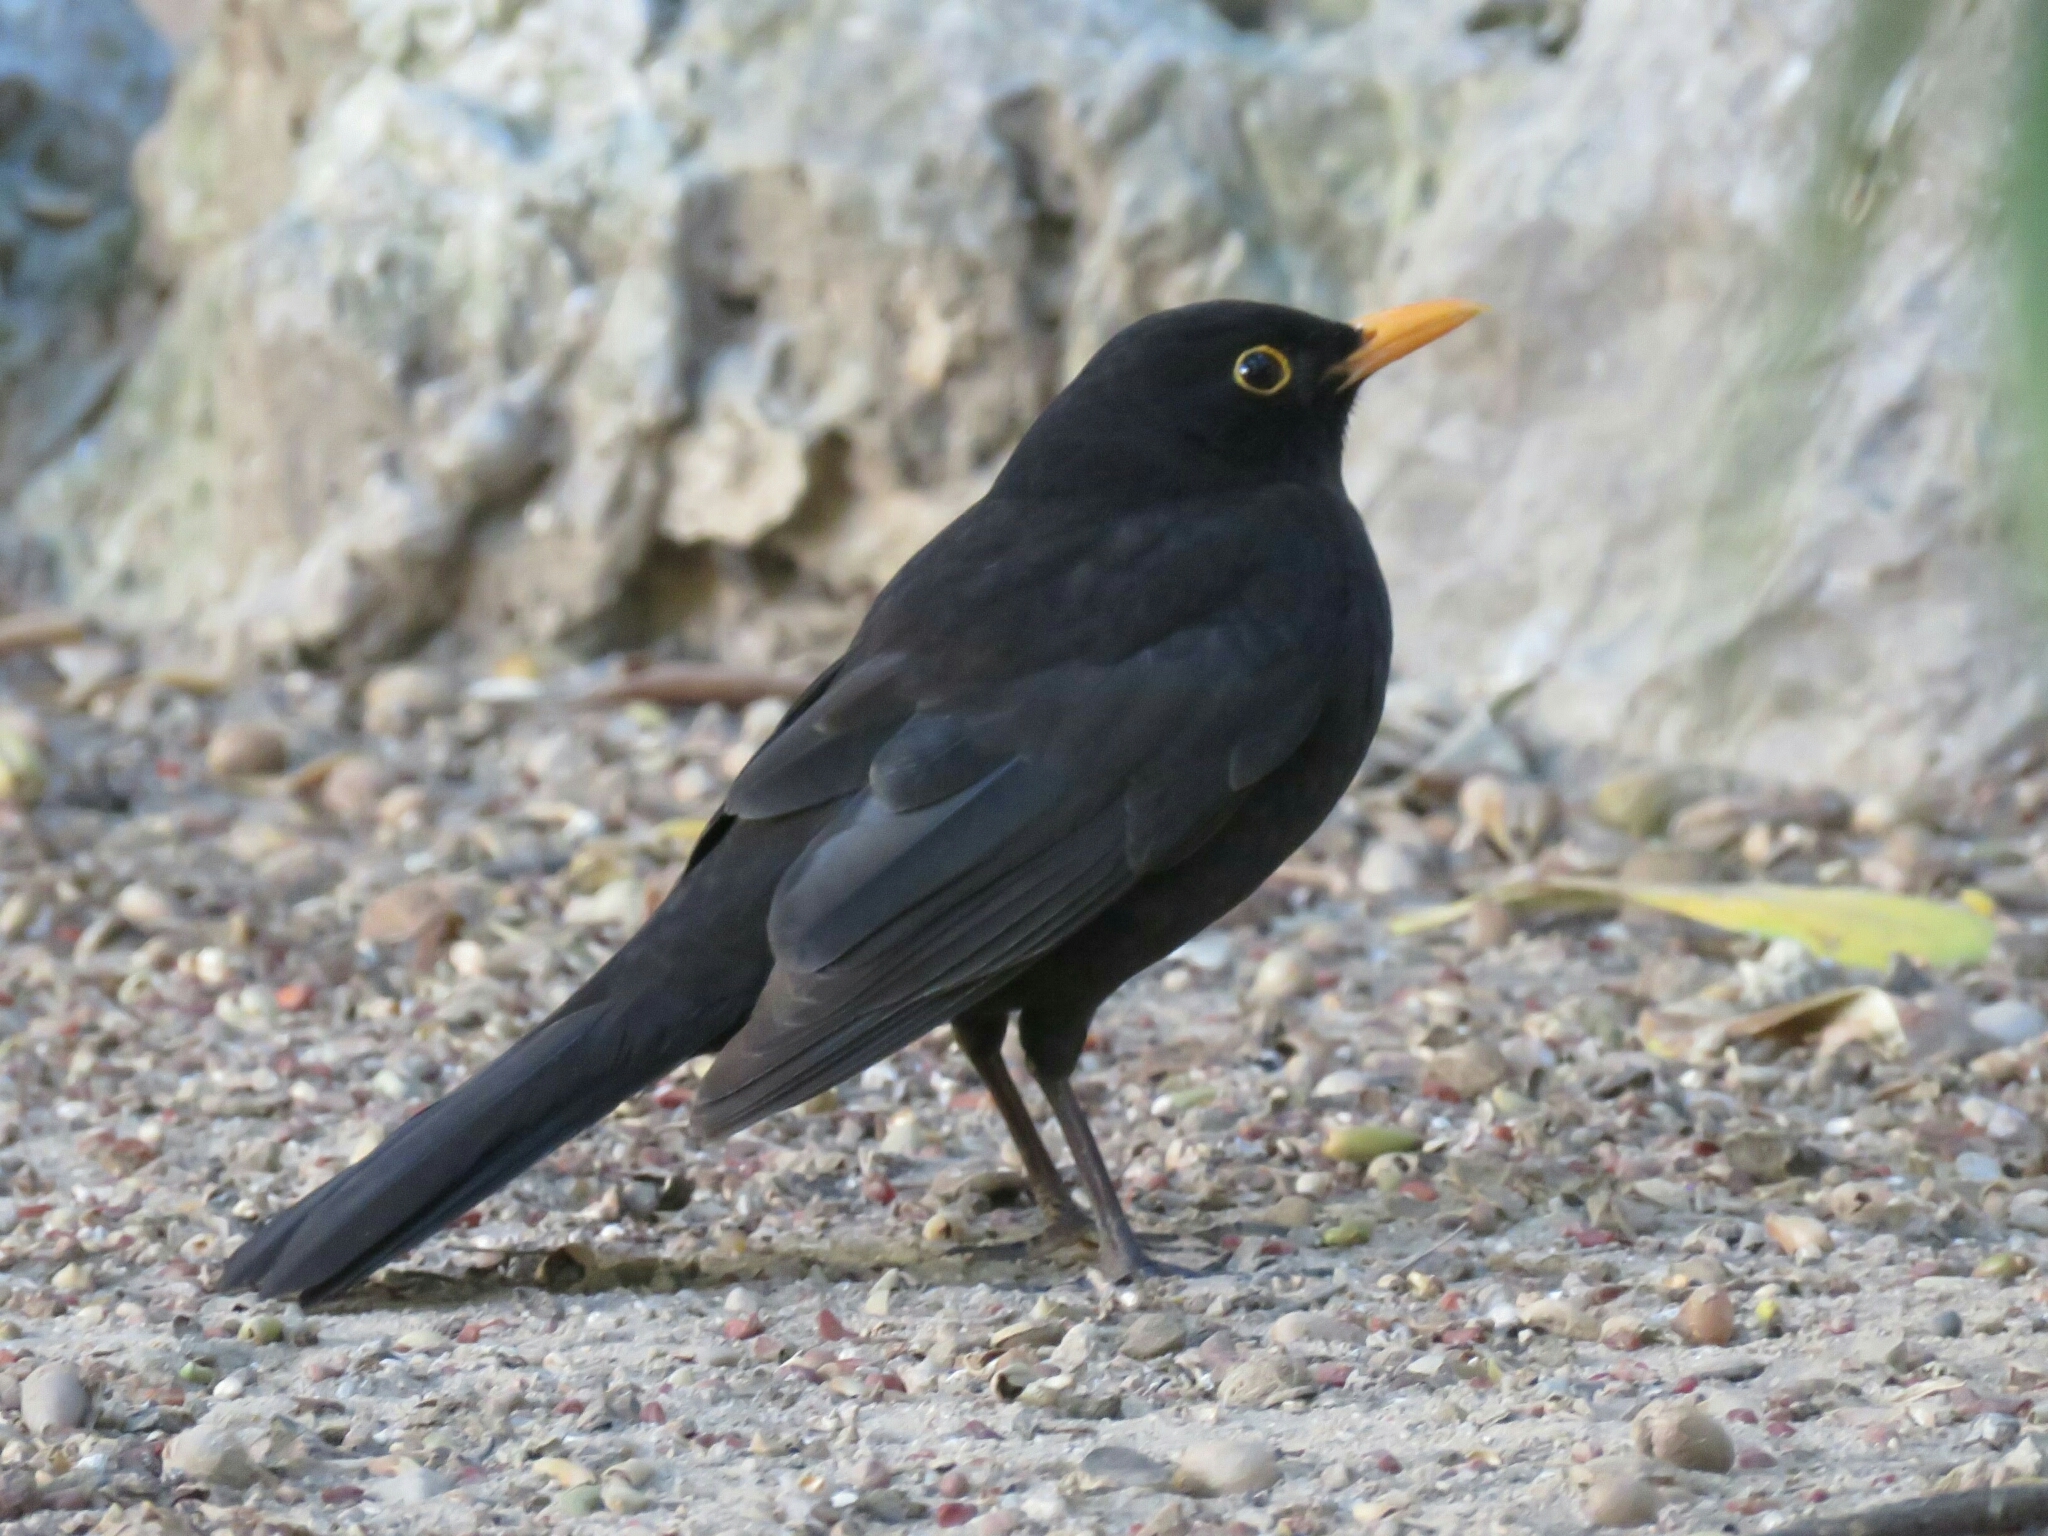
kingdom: Animalia
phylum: Chordata
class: Aves
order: Passeriformes
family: Turdidae
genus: Turdus
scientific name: Turdus merula
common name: Common blackbird
